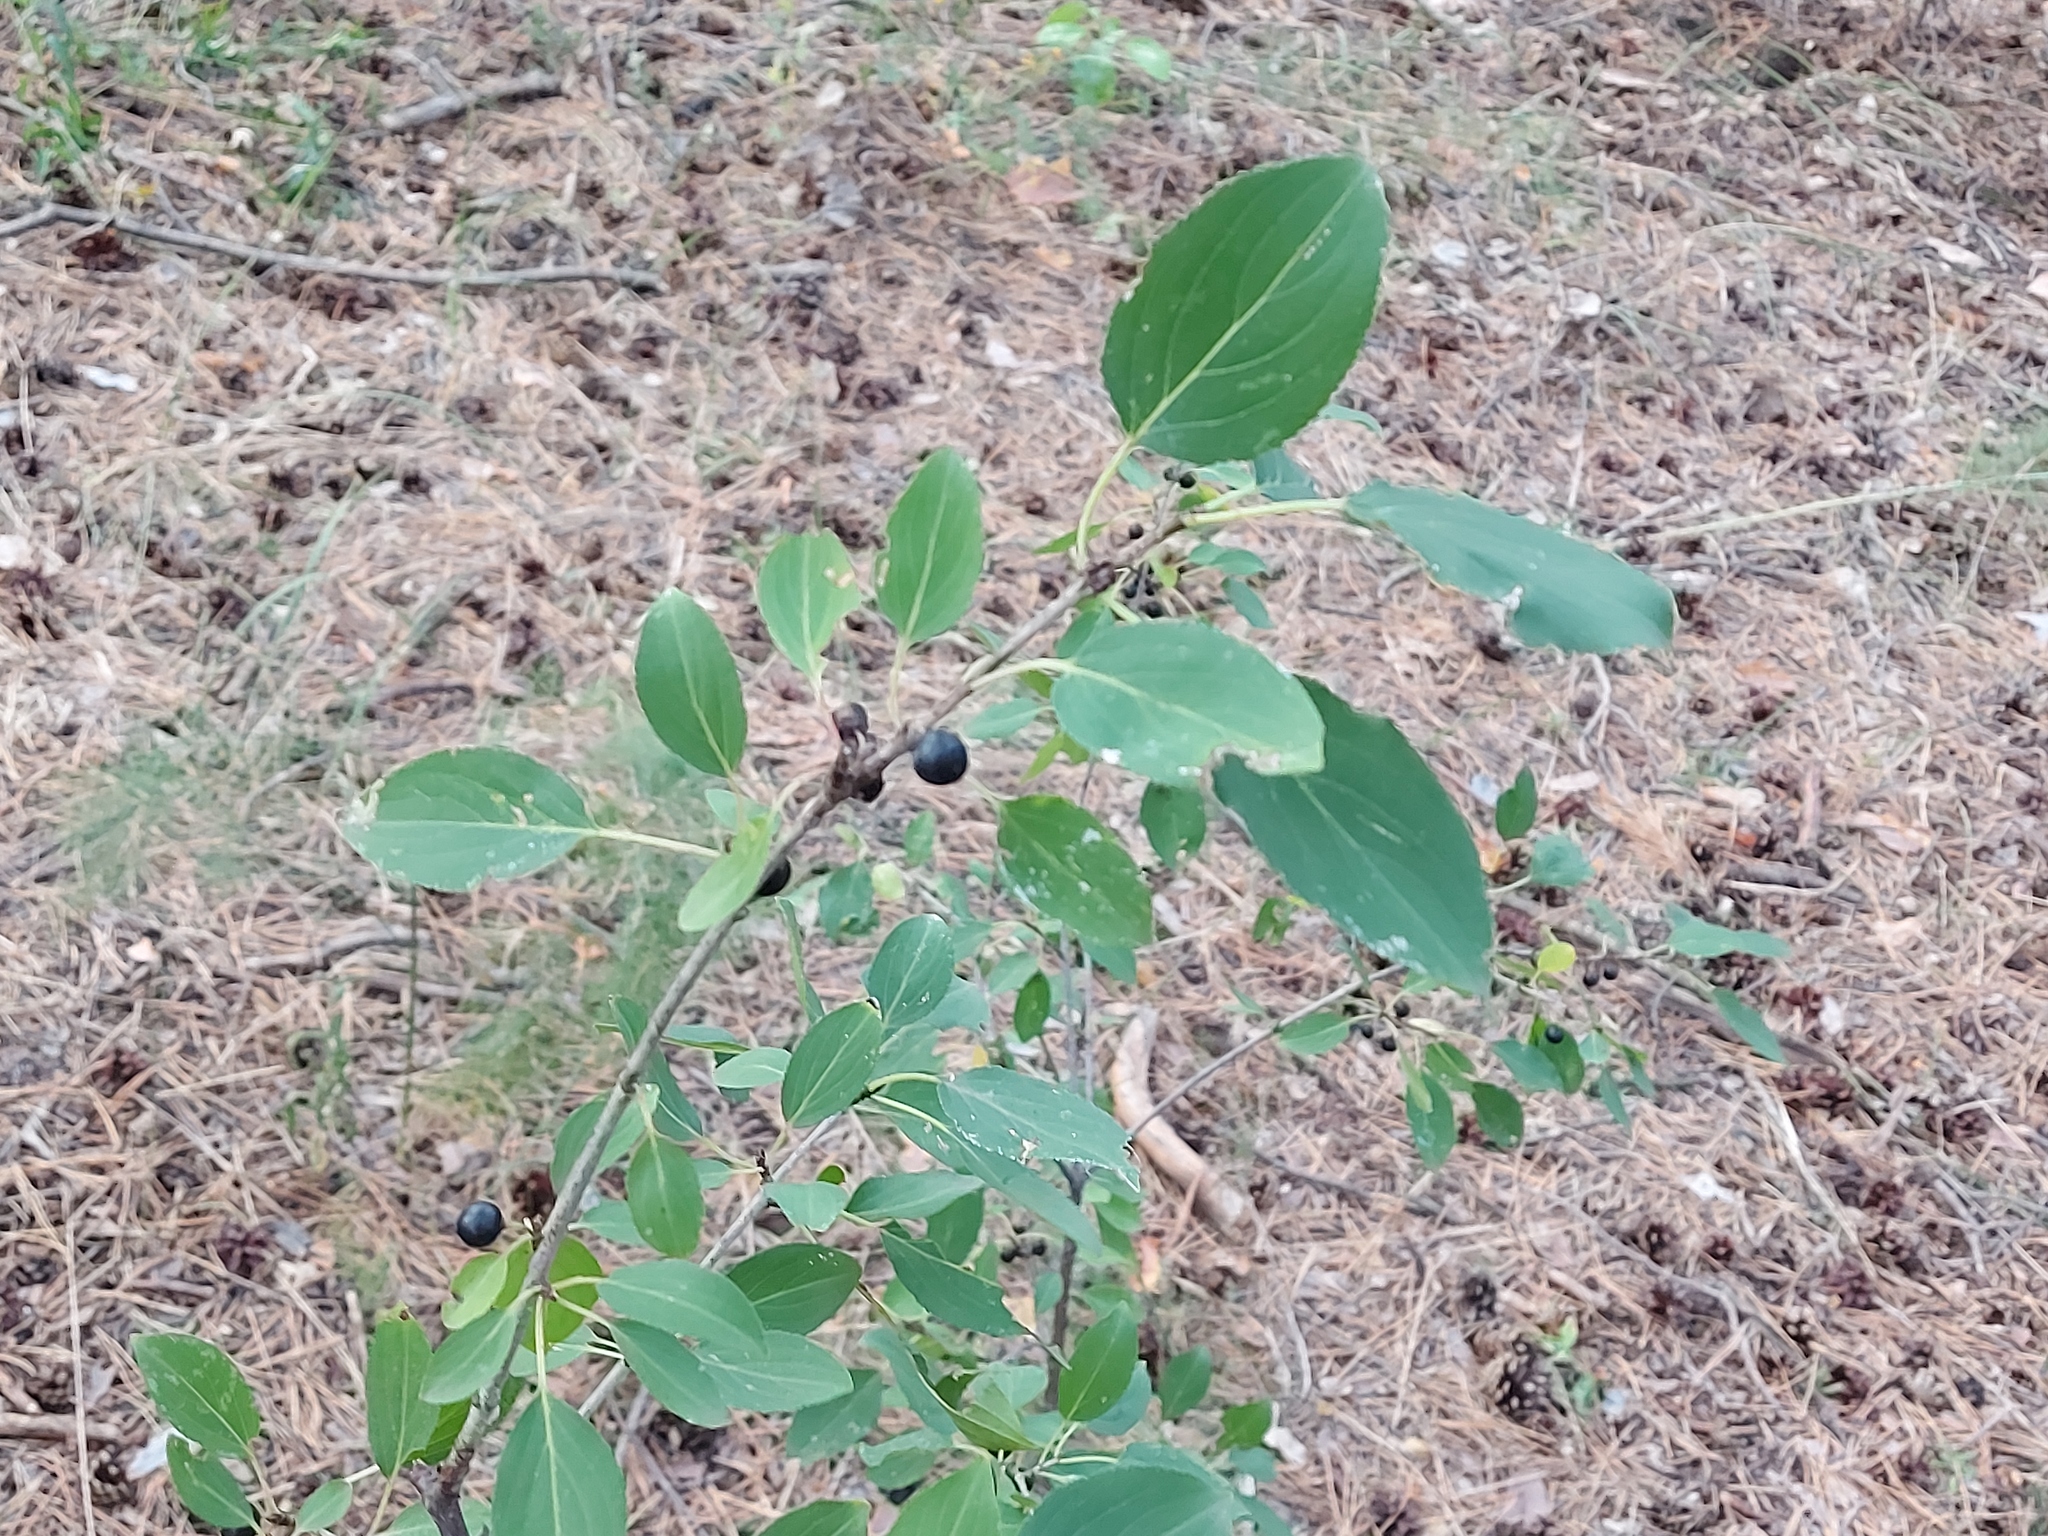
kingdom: Plantae
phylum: Tracheophyta
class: Magnoliopsida
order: Rosales
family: Rhamnaceae
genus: Rhamnus
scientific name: Rhamnus cathartica
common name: Common buckthorn
